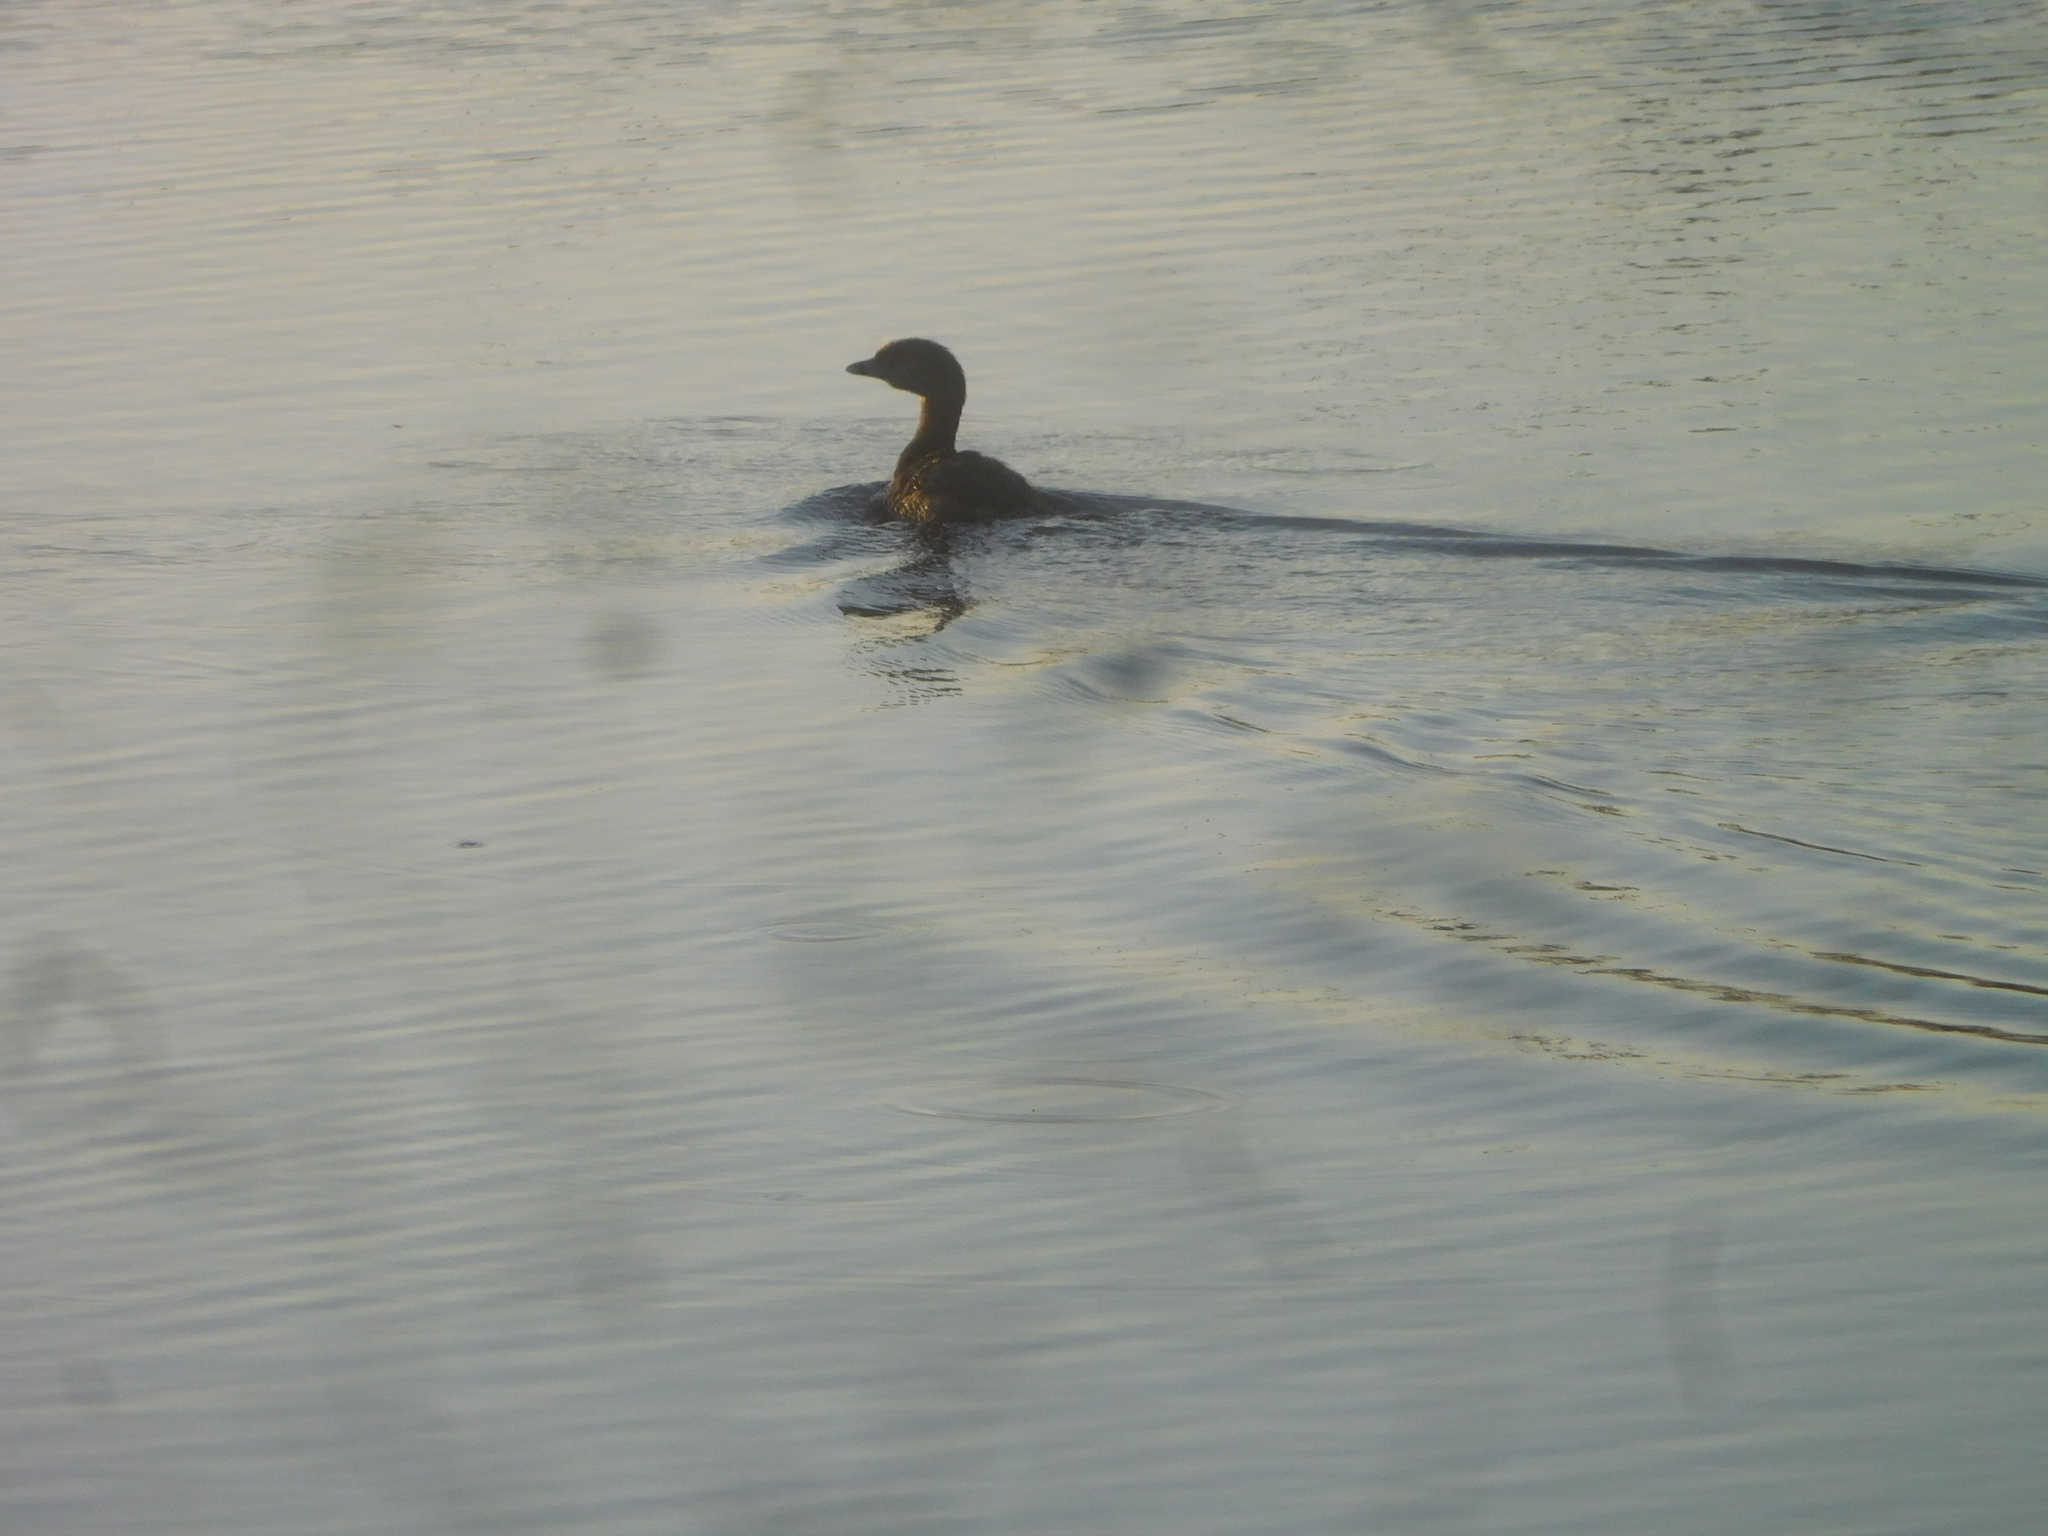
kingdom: Animalia
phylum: Chordata
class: Aves
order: Podicipediformes
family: Podicipedidae
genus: Podilymbus
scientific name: Podilymbus podiceps
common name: Pied-billed grebe
